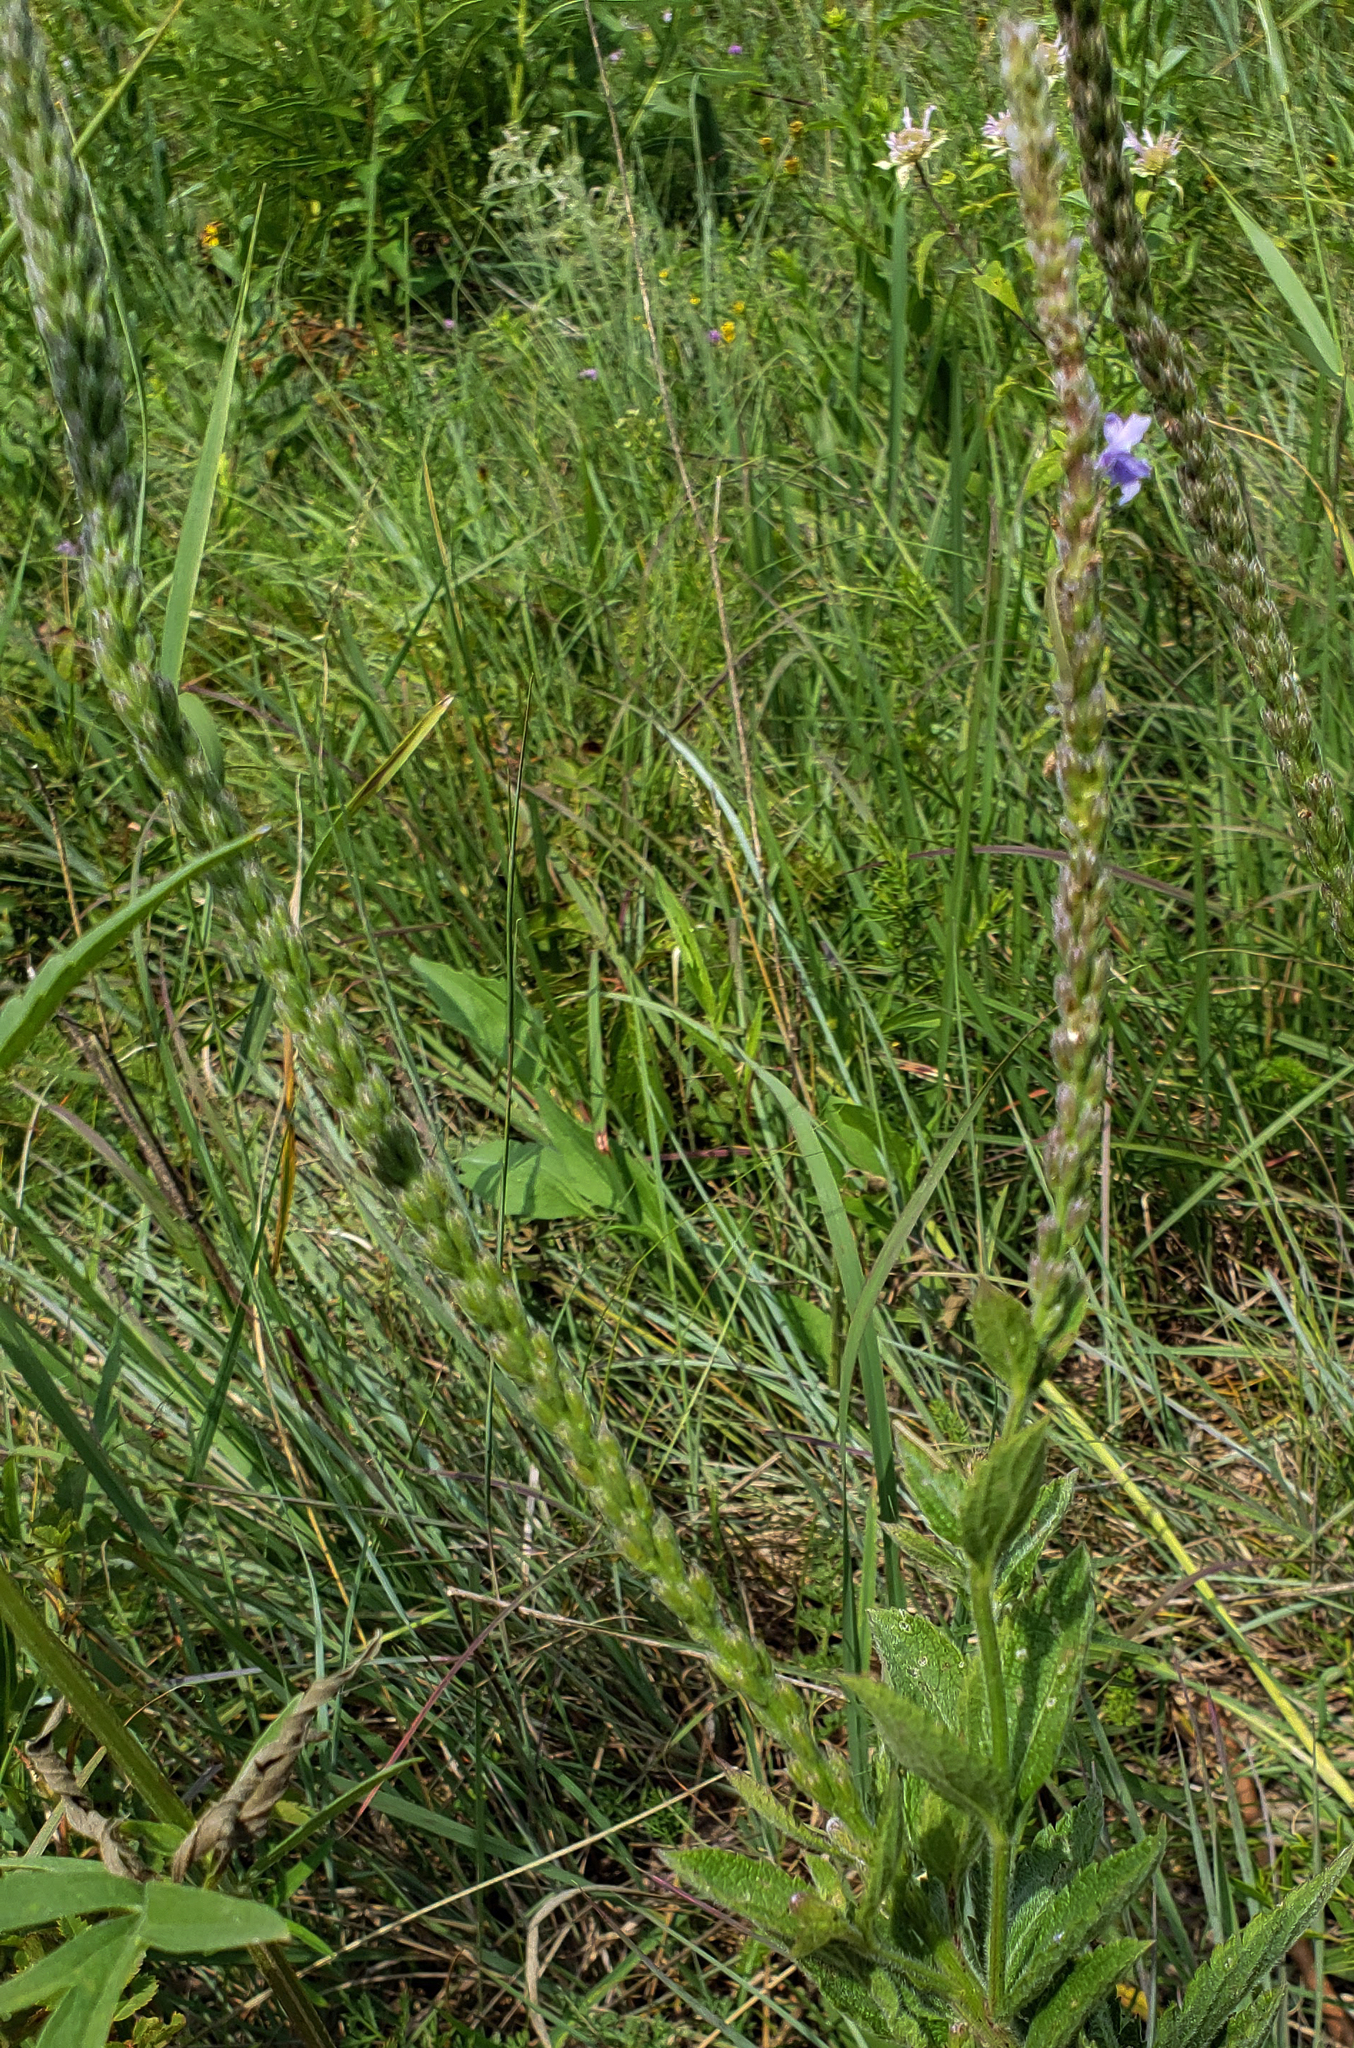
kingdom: Plantae
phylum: Tracheophyta
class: Magnoliopsida
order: Lamiales
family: Verbenaceae
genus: Verbena
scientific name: Verbena stricta
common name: Hoary vervain
